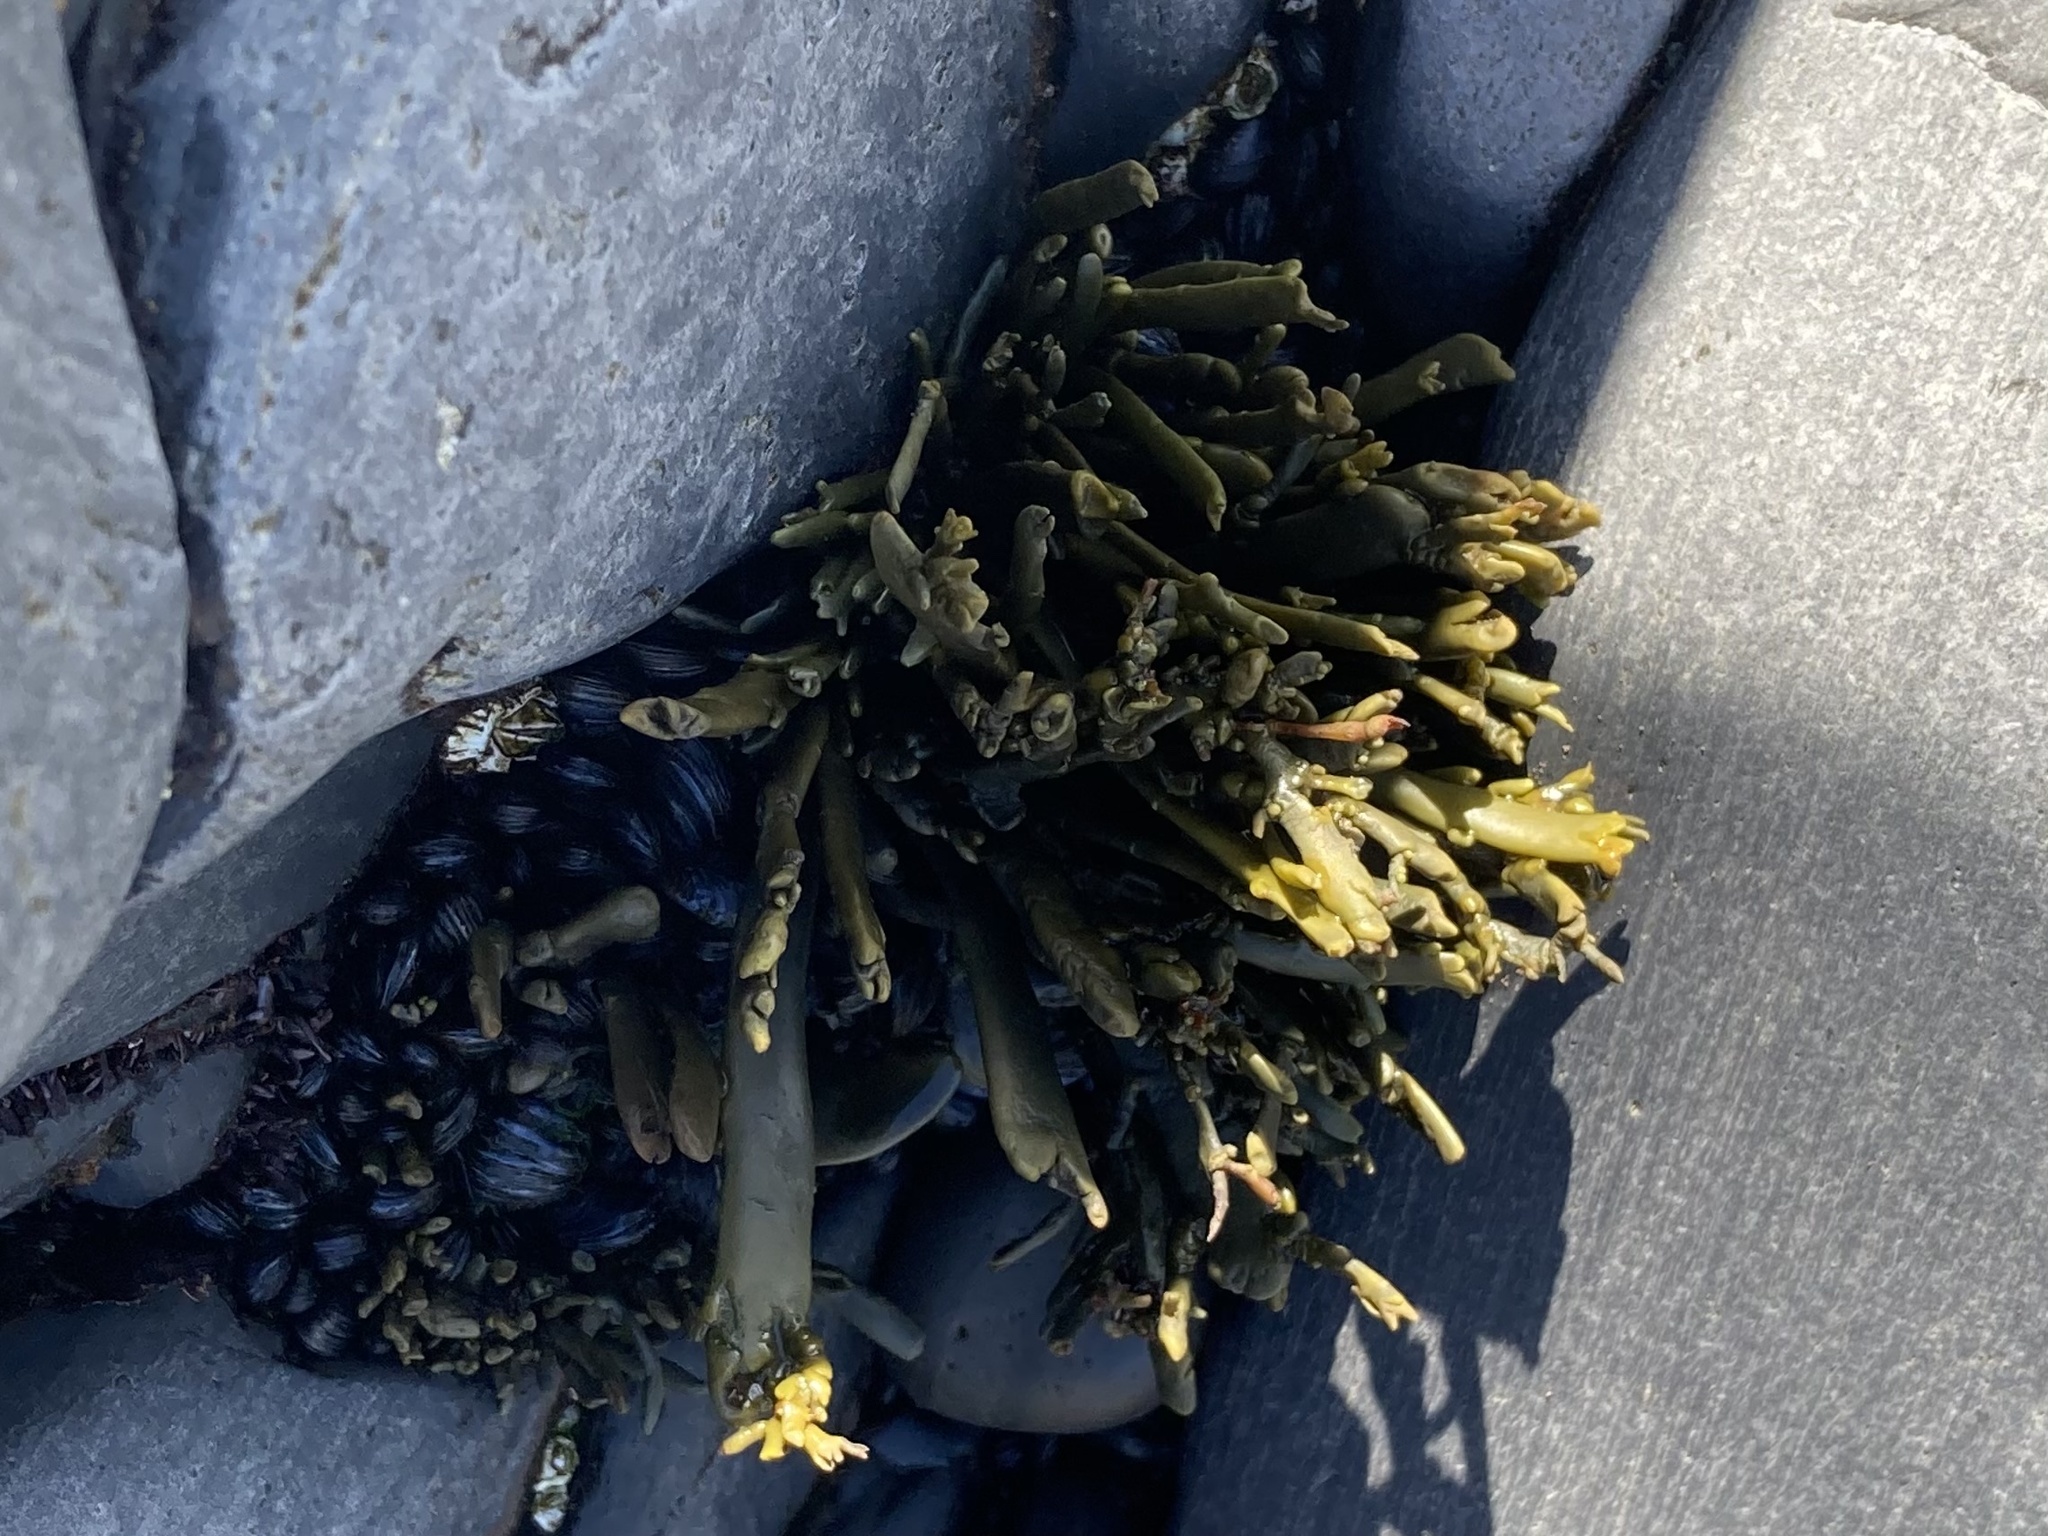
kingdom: Chromista
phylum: Ochrophyta
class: Phaeophyceae
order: Fucales
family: Fucaceae
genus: Ascophyllum
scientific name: Ascophyllum nodosum
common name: Knotted wrack
